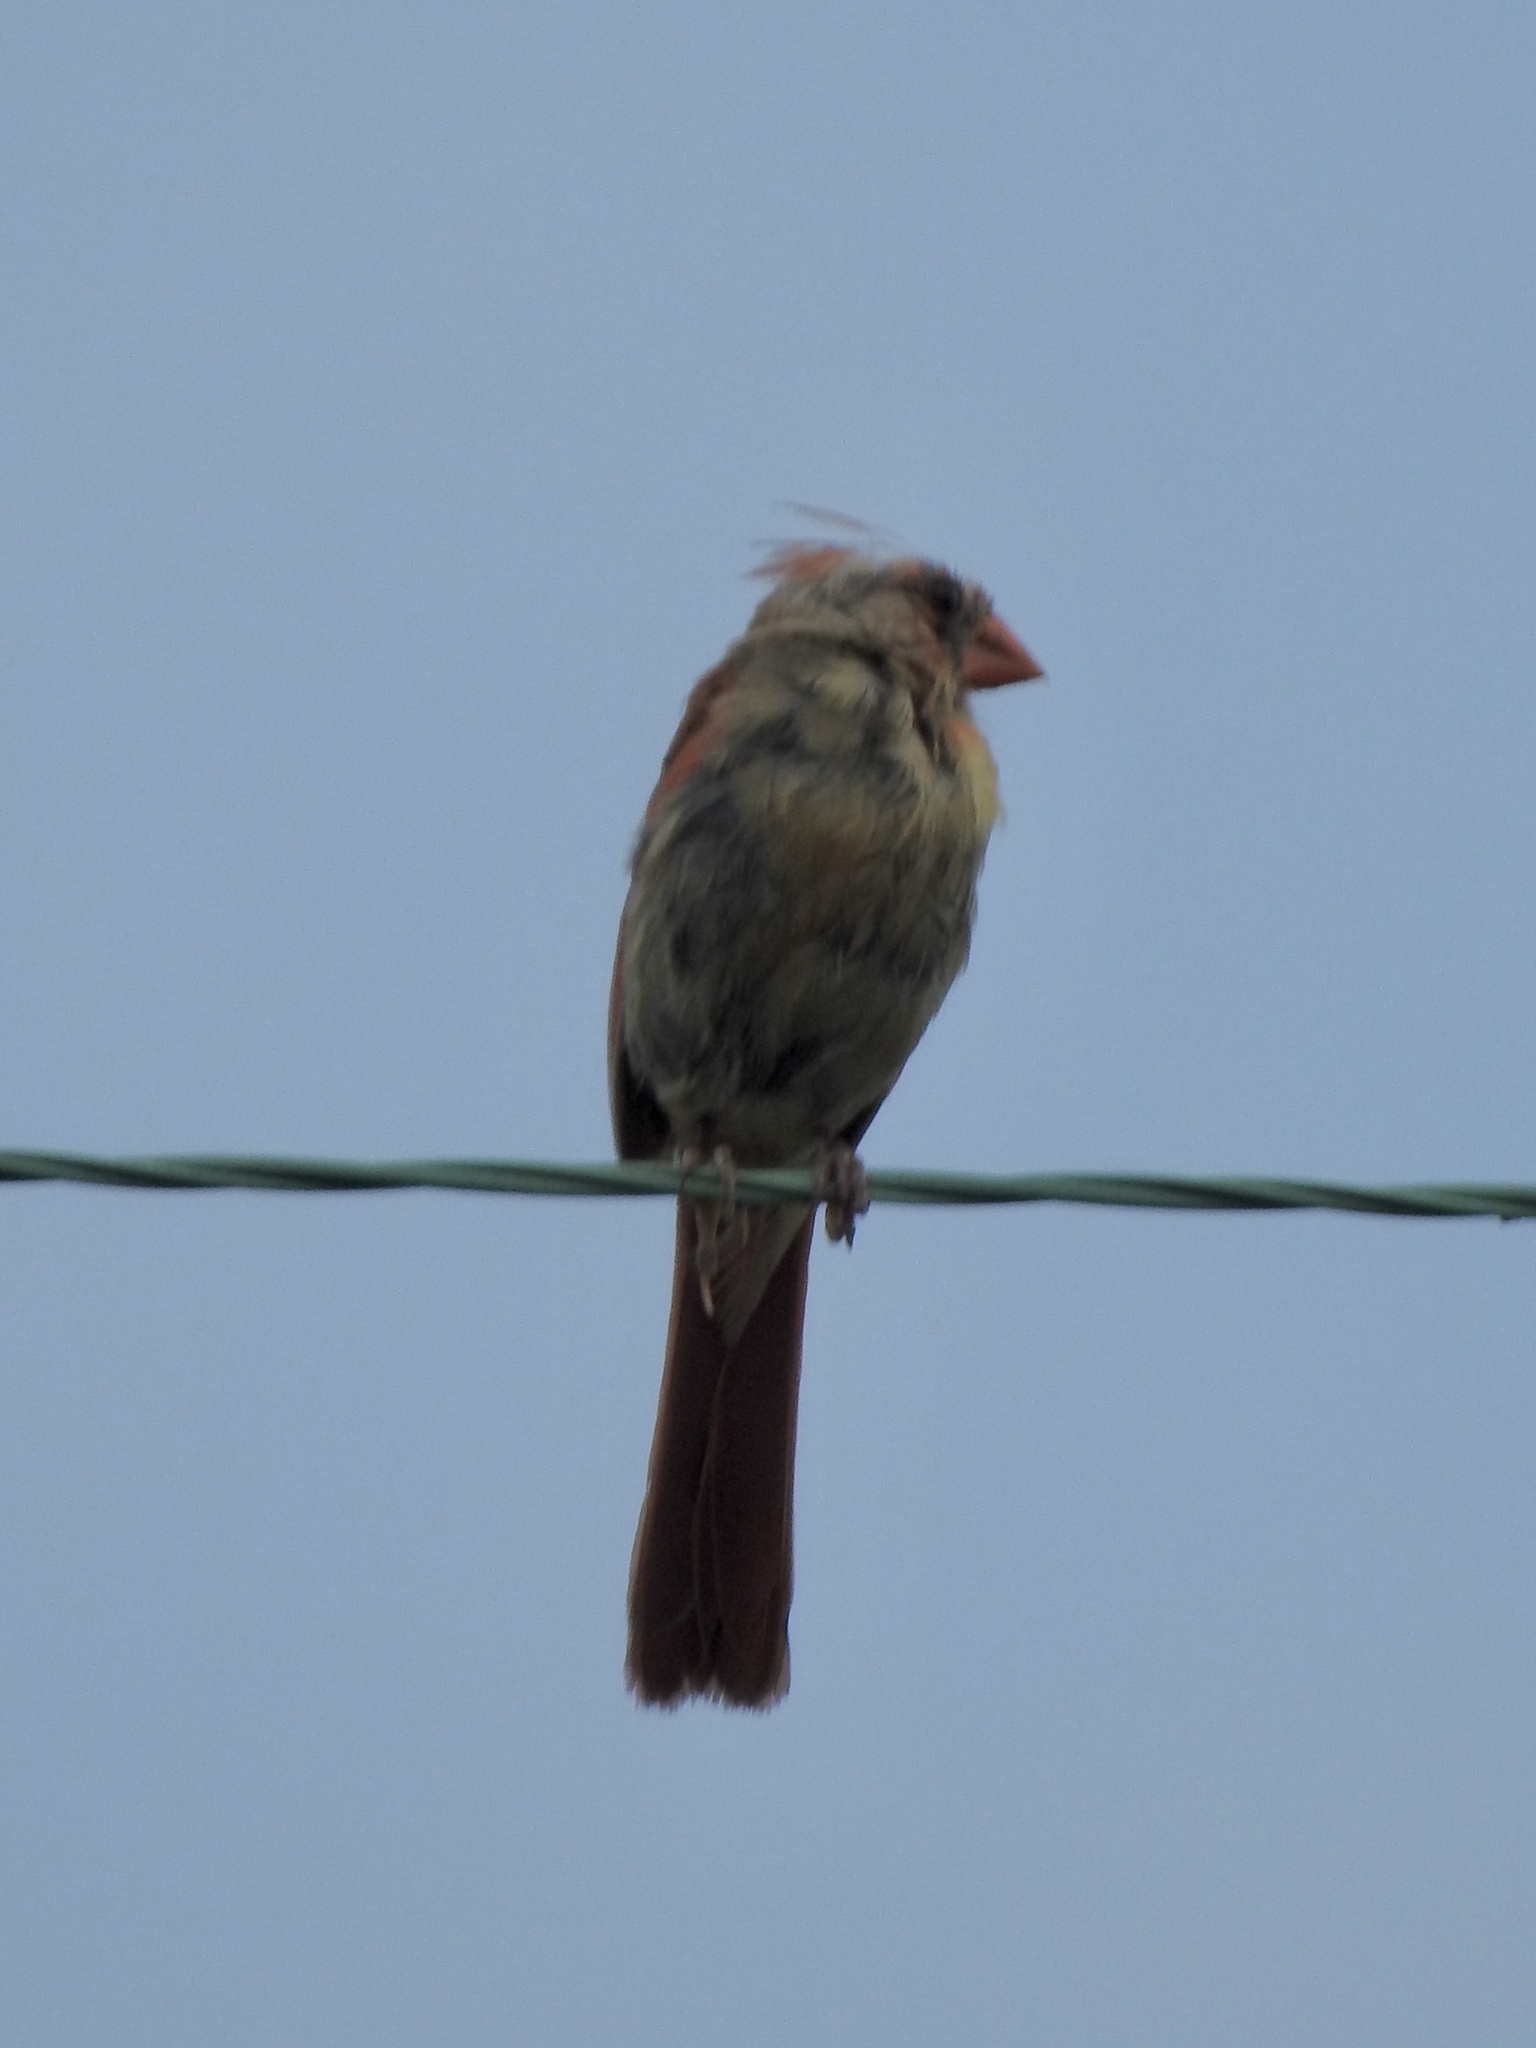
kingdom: Animalia
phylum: Chordata
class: Aves
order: Passeriformes
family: Cardinalidae
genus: Cardinalis
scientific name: Cardinalis cardinalis
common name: Northern cardinal
